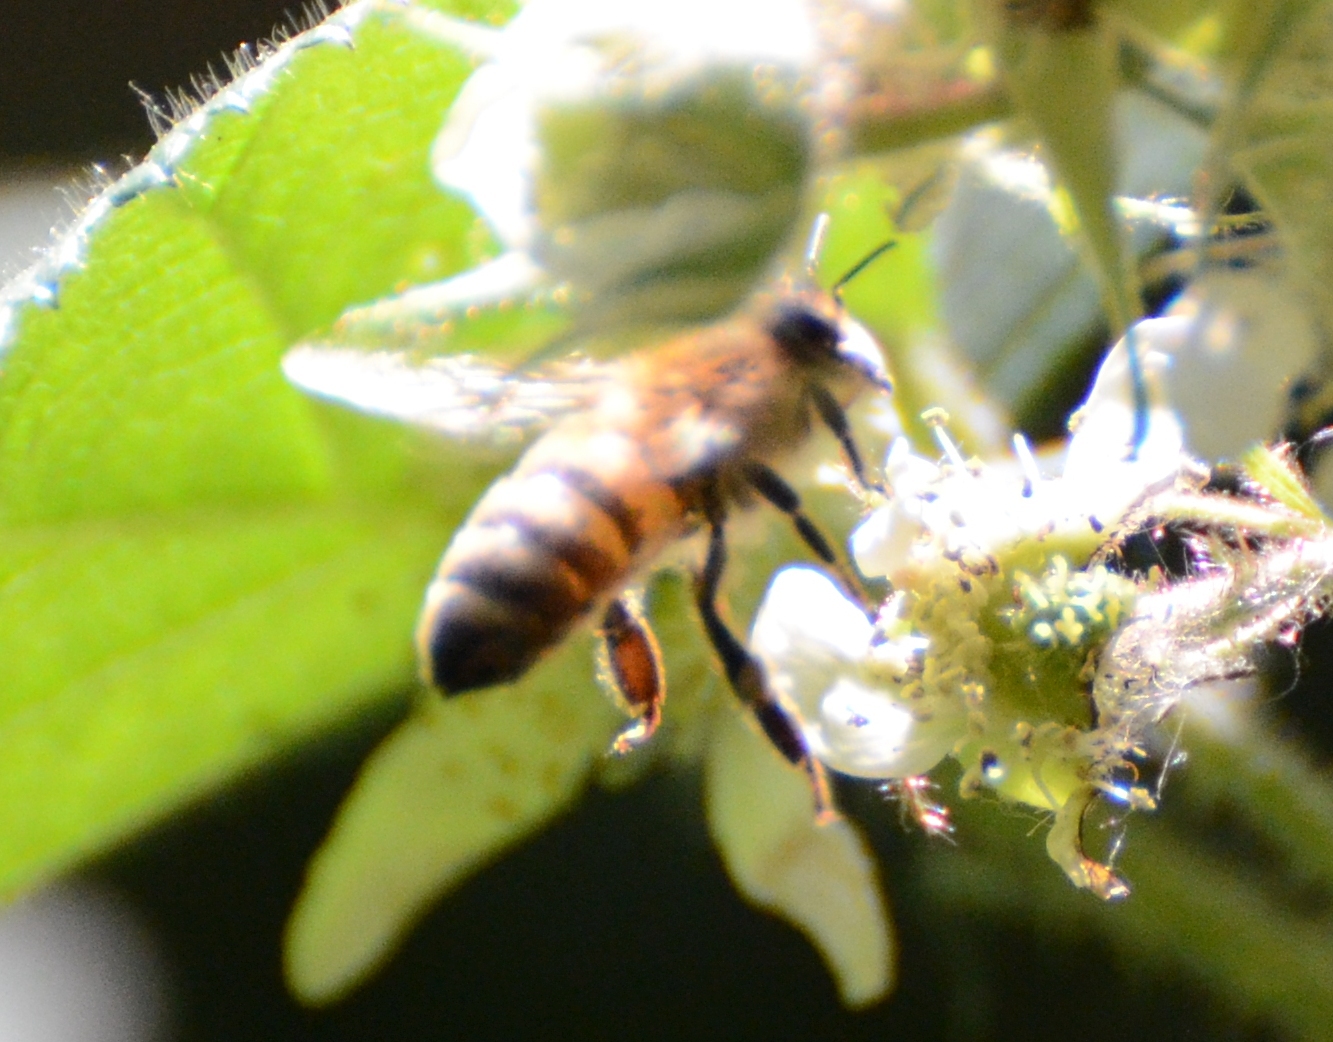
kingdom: Animalia
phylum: Arthropoda
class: Insecta
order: Hymenoptera
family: Apidae
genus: Apis
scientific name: Apis mellifera
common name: Honey bee
